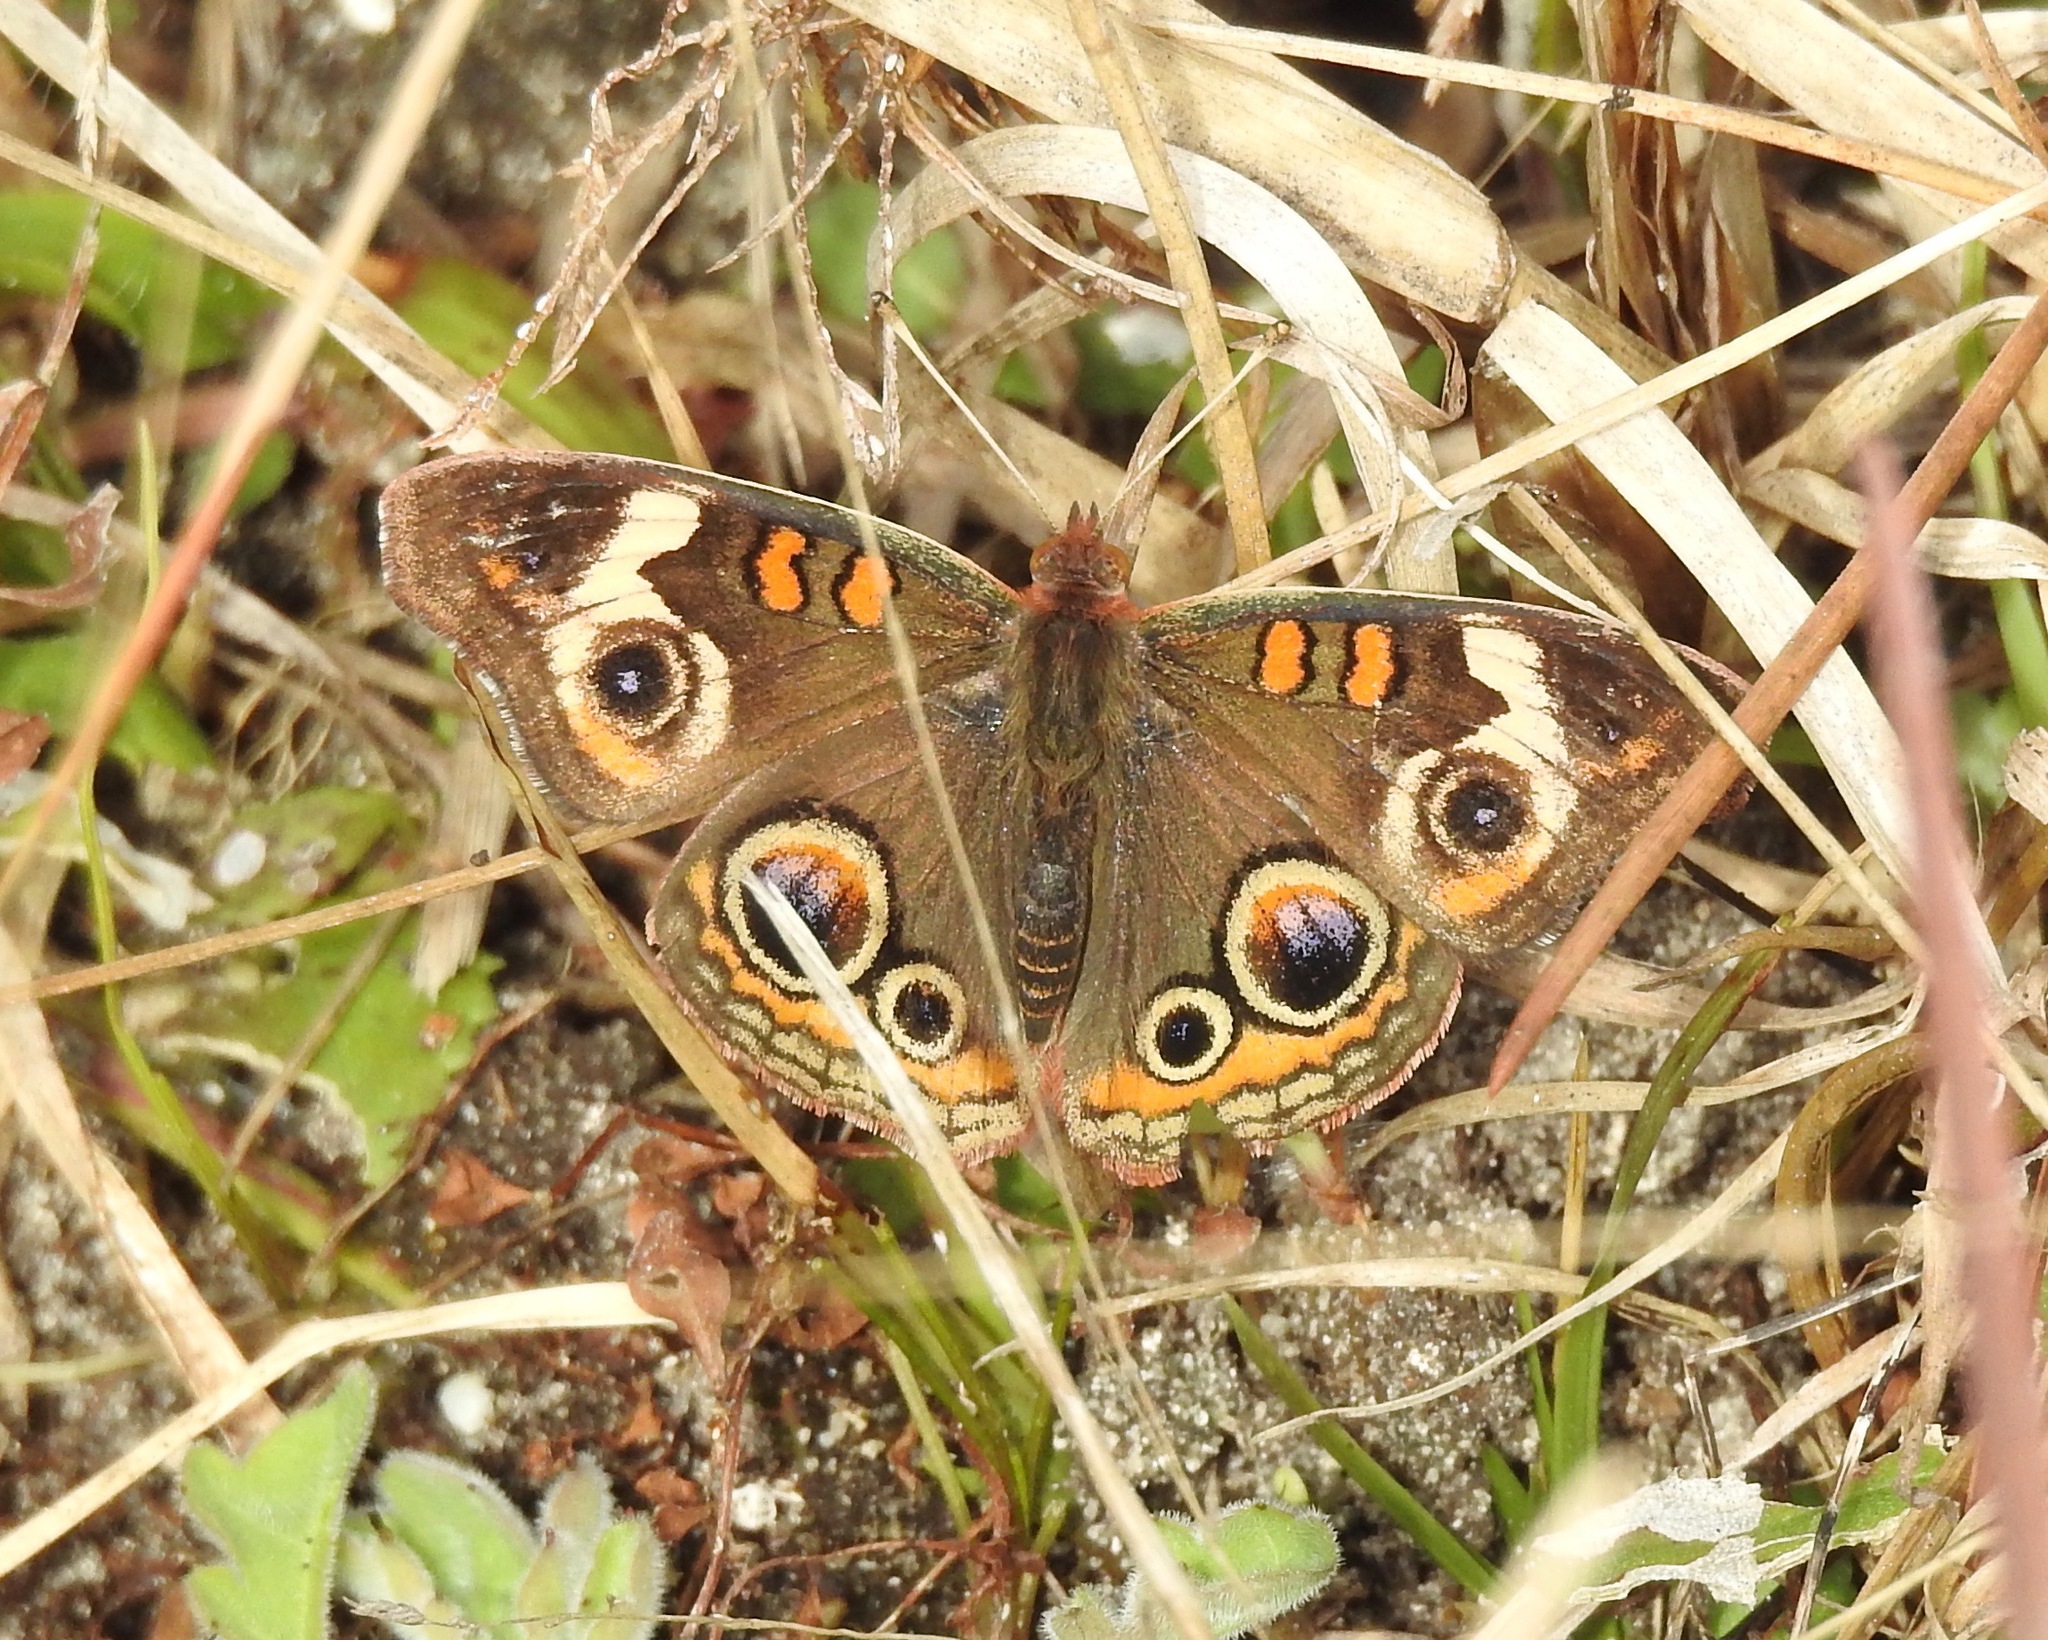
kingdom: Animalia
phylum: Arthropoda
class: Insecta
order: Lepidoptera
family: Nymphalidae
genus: Junonia
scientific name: Junonia coenia
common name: Common buckeye
